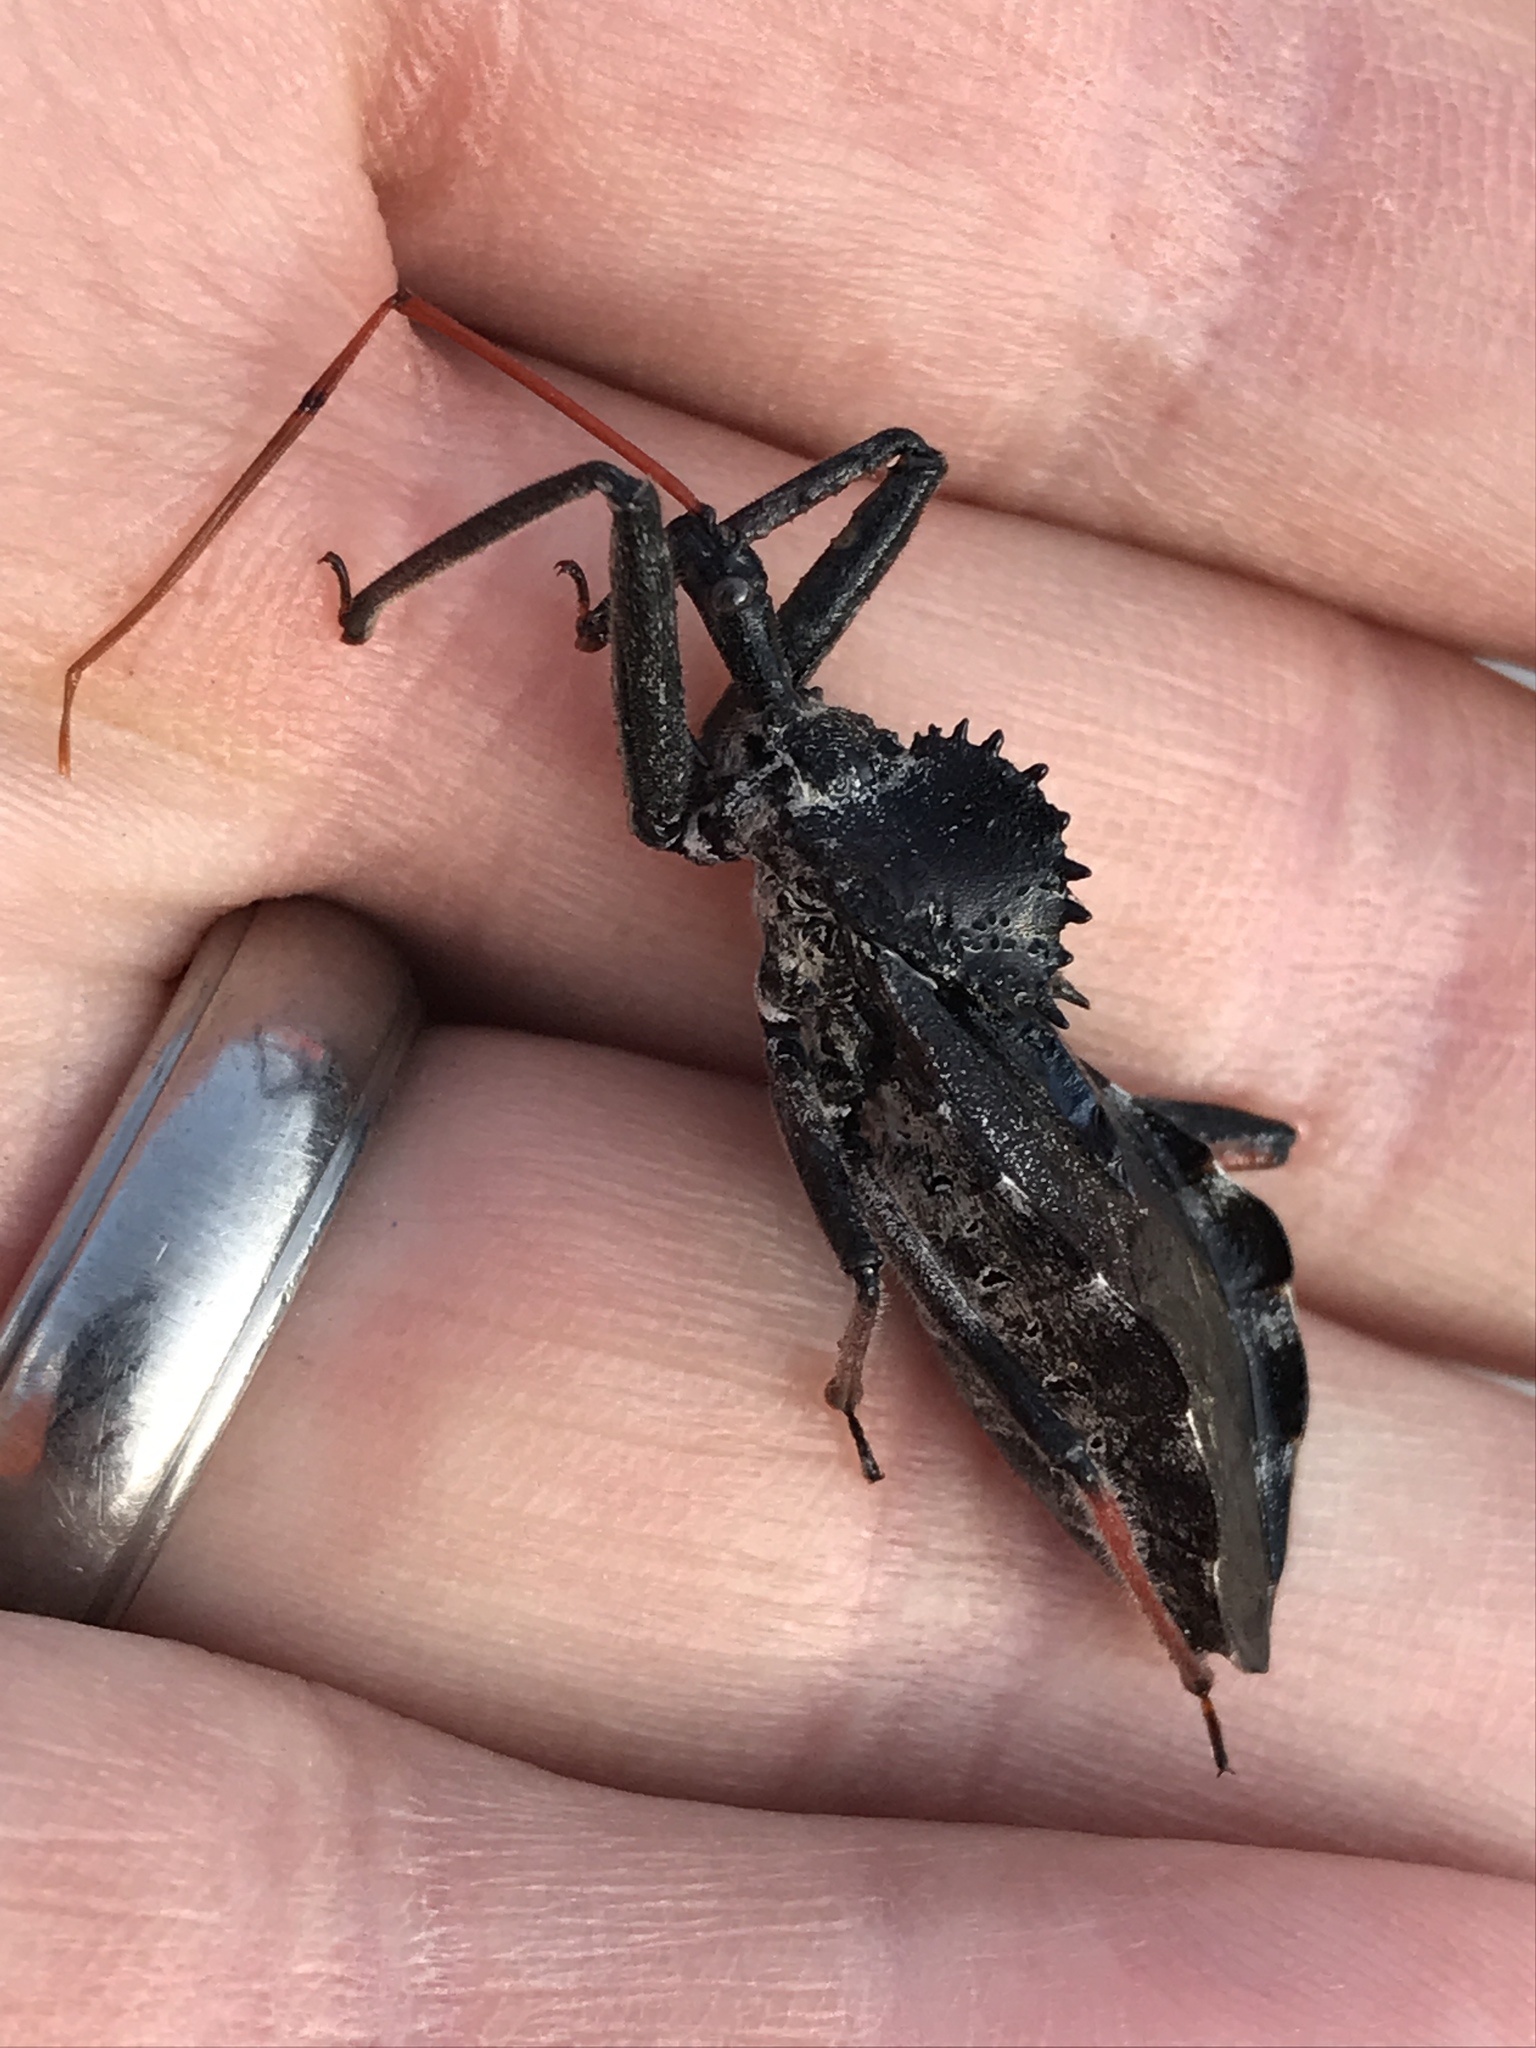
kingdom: Animalia
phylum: Arthropoda
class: Insecta
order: Hemiptera
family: Reduviidae
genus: Arilus
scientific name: Arilus cristatus
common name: North american wheel bug
